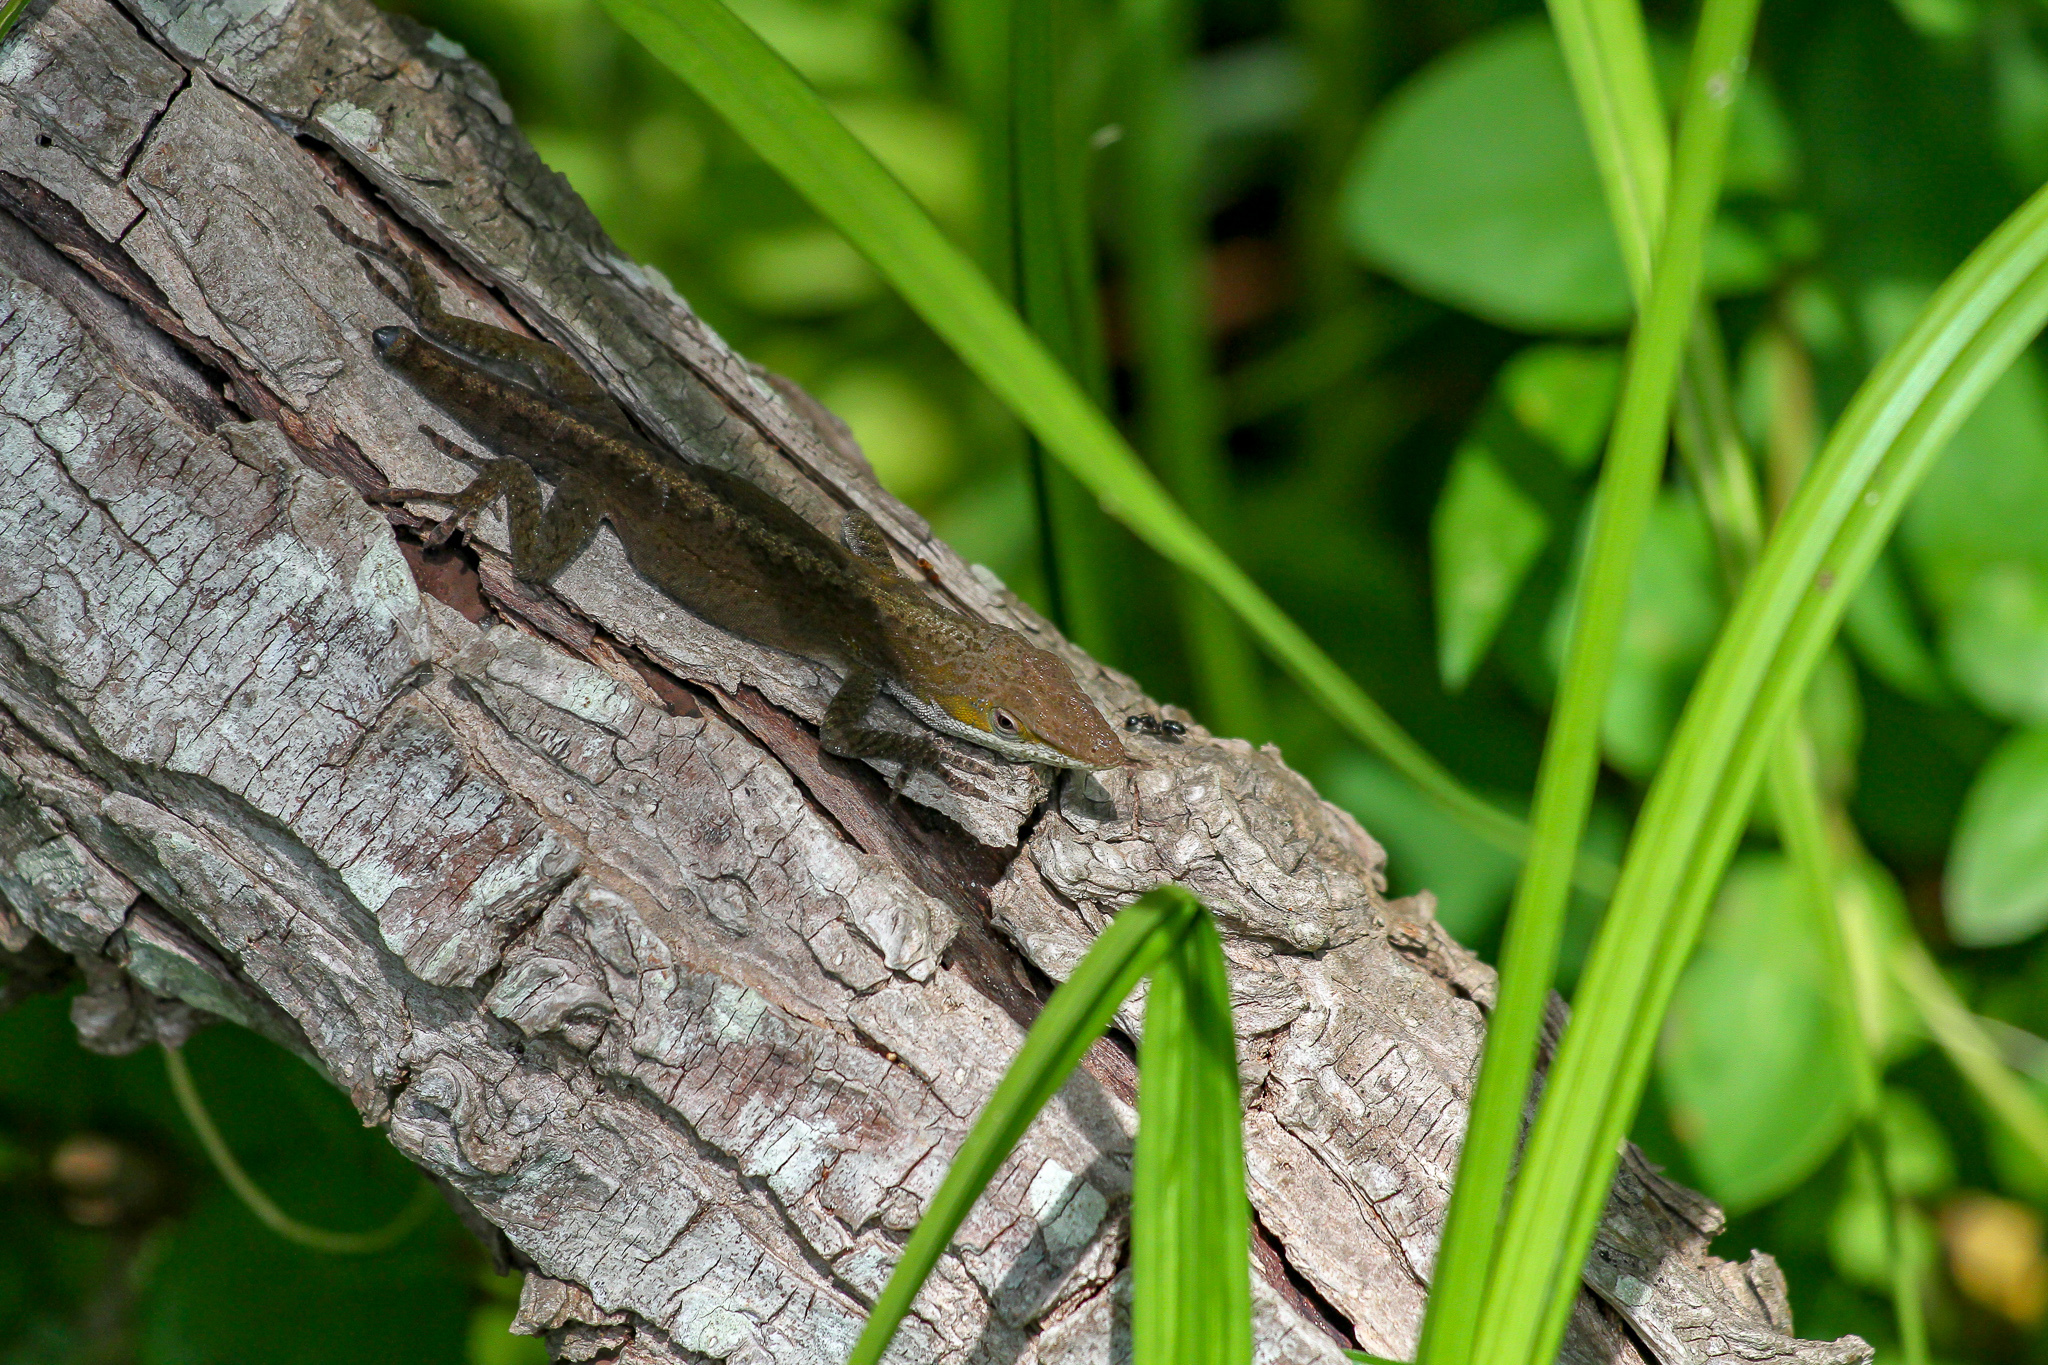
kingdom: Animalia
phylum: Chordata
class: Squamata
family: Dactyloidae
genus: Anolis
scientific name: Anolis carolinensis
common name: Green anole
